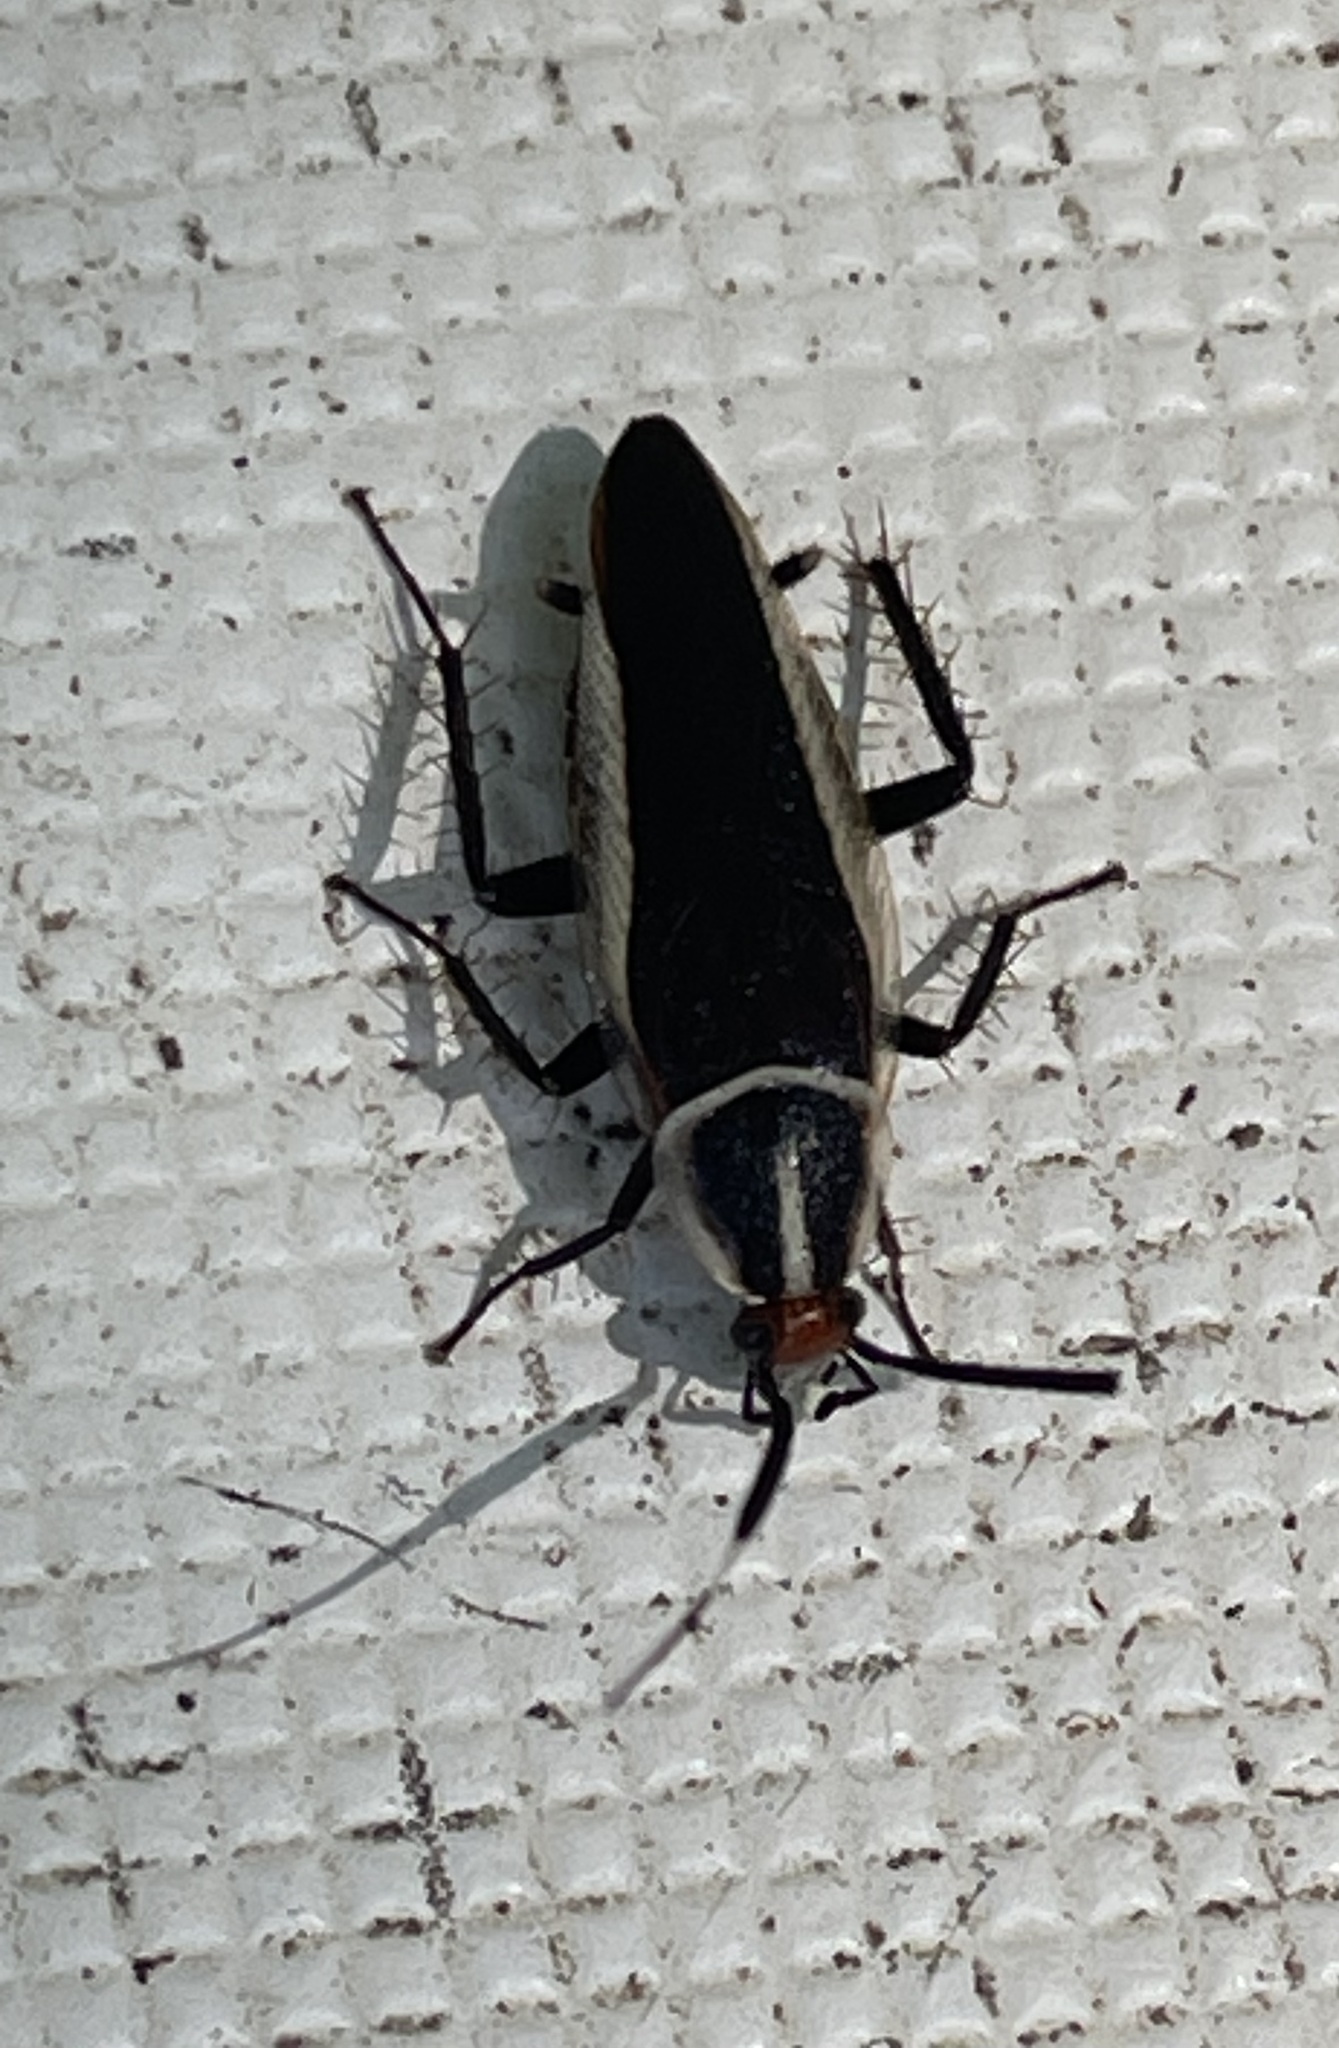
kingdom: Animalia
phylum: Arthropoda
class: Insecta
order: Blattodea
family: Ectobiidae
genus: Hemithyrsocera
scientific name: Hemithyrsocera histrio
